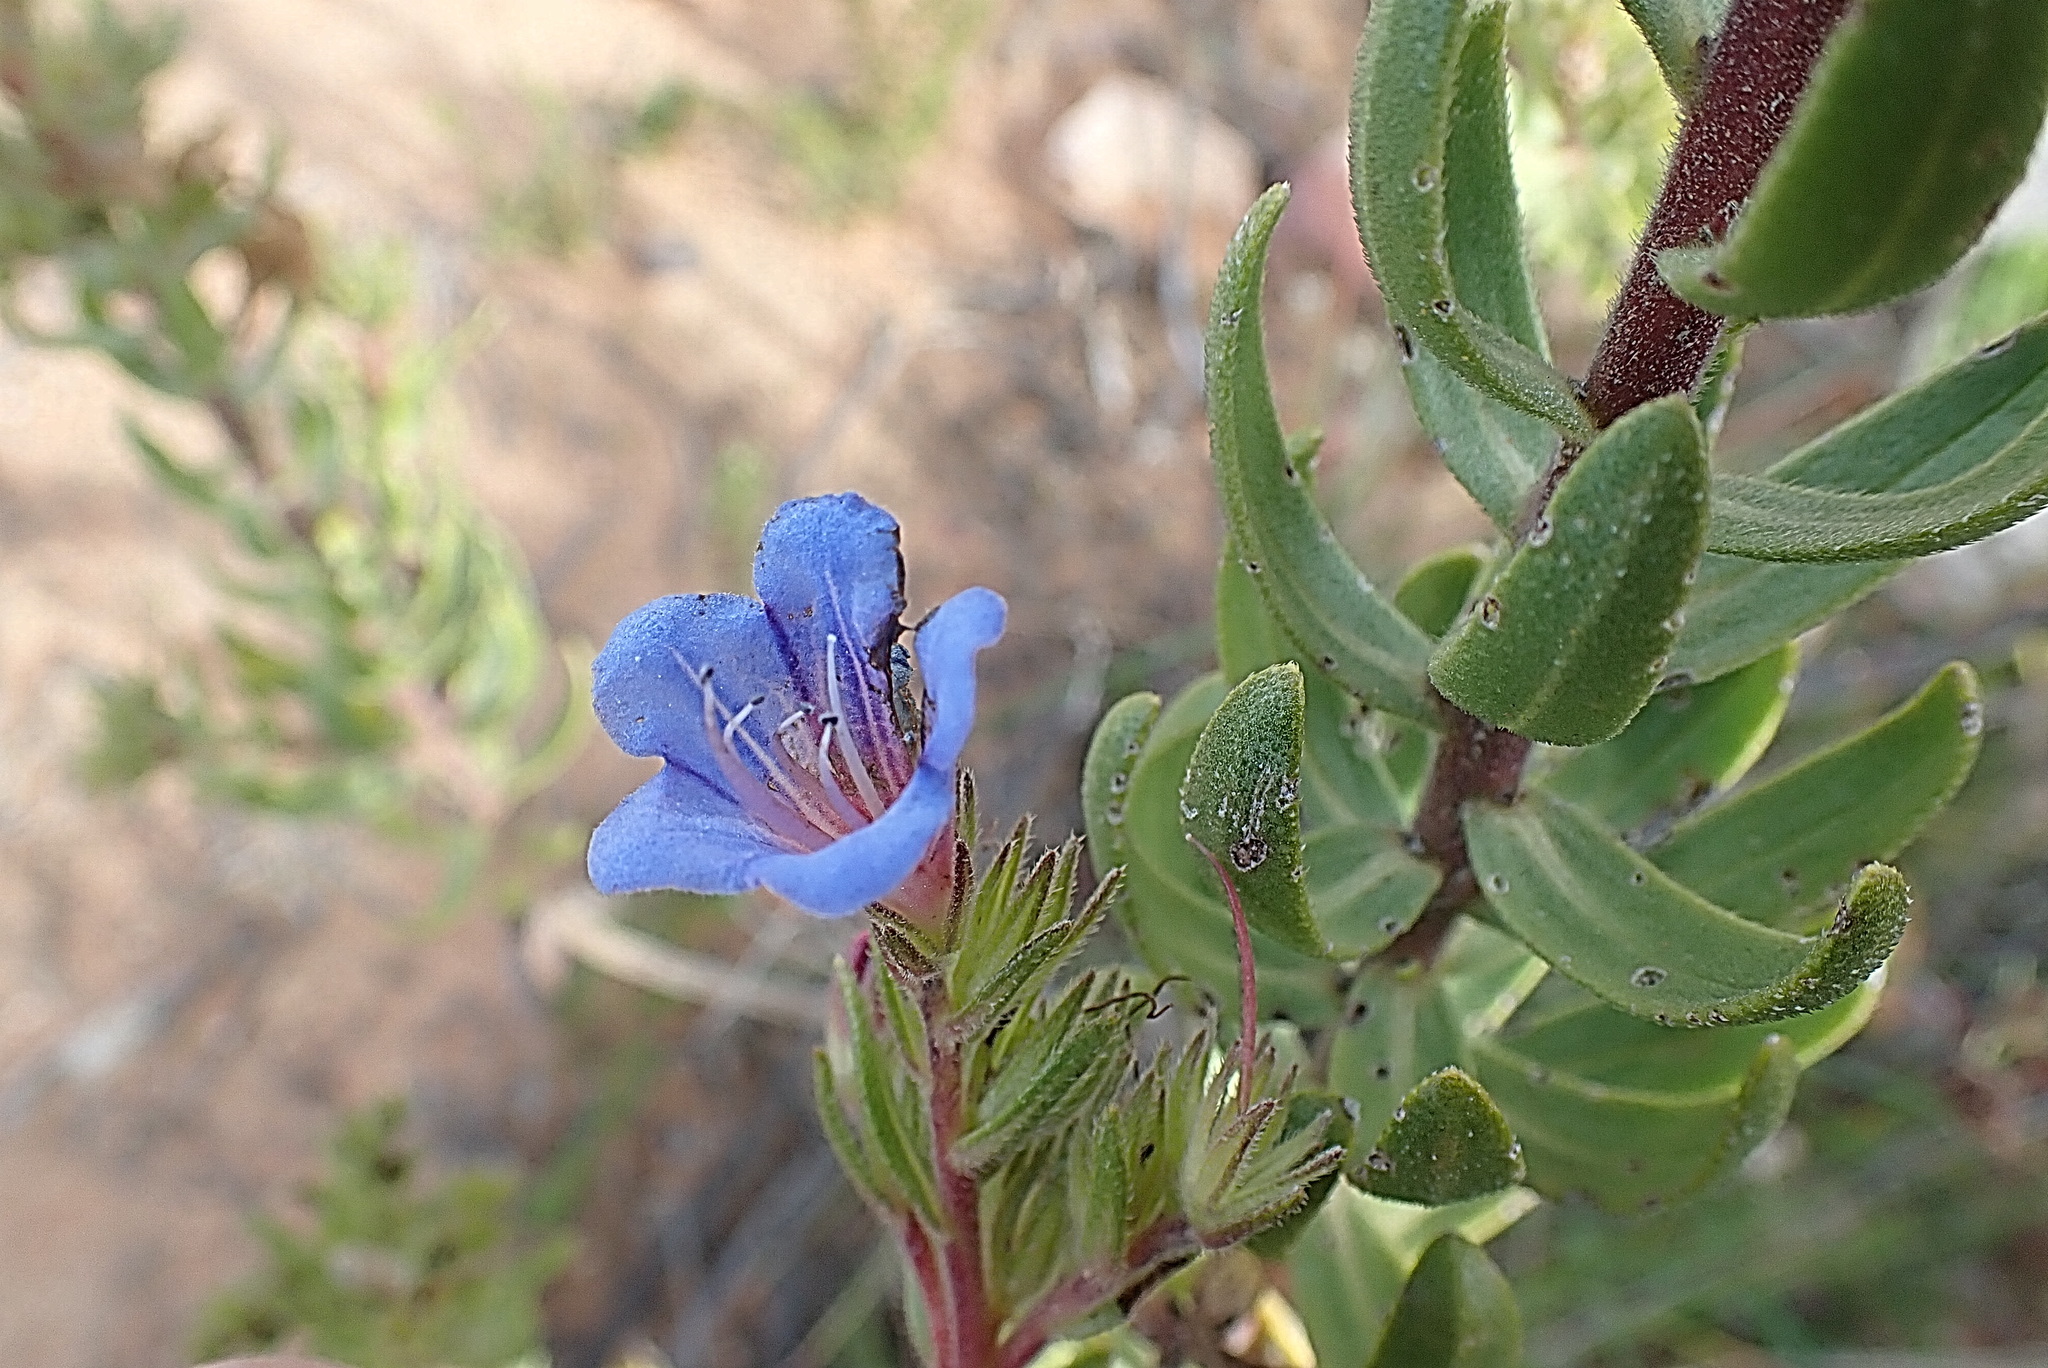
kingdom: Plantae
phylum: Tracheophyta
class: Magnoliopsida
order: Boraginales
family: Boraginaceae
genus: Lobostemon
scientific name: Lobostemon marlothii
